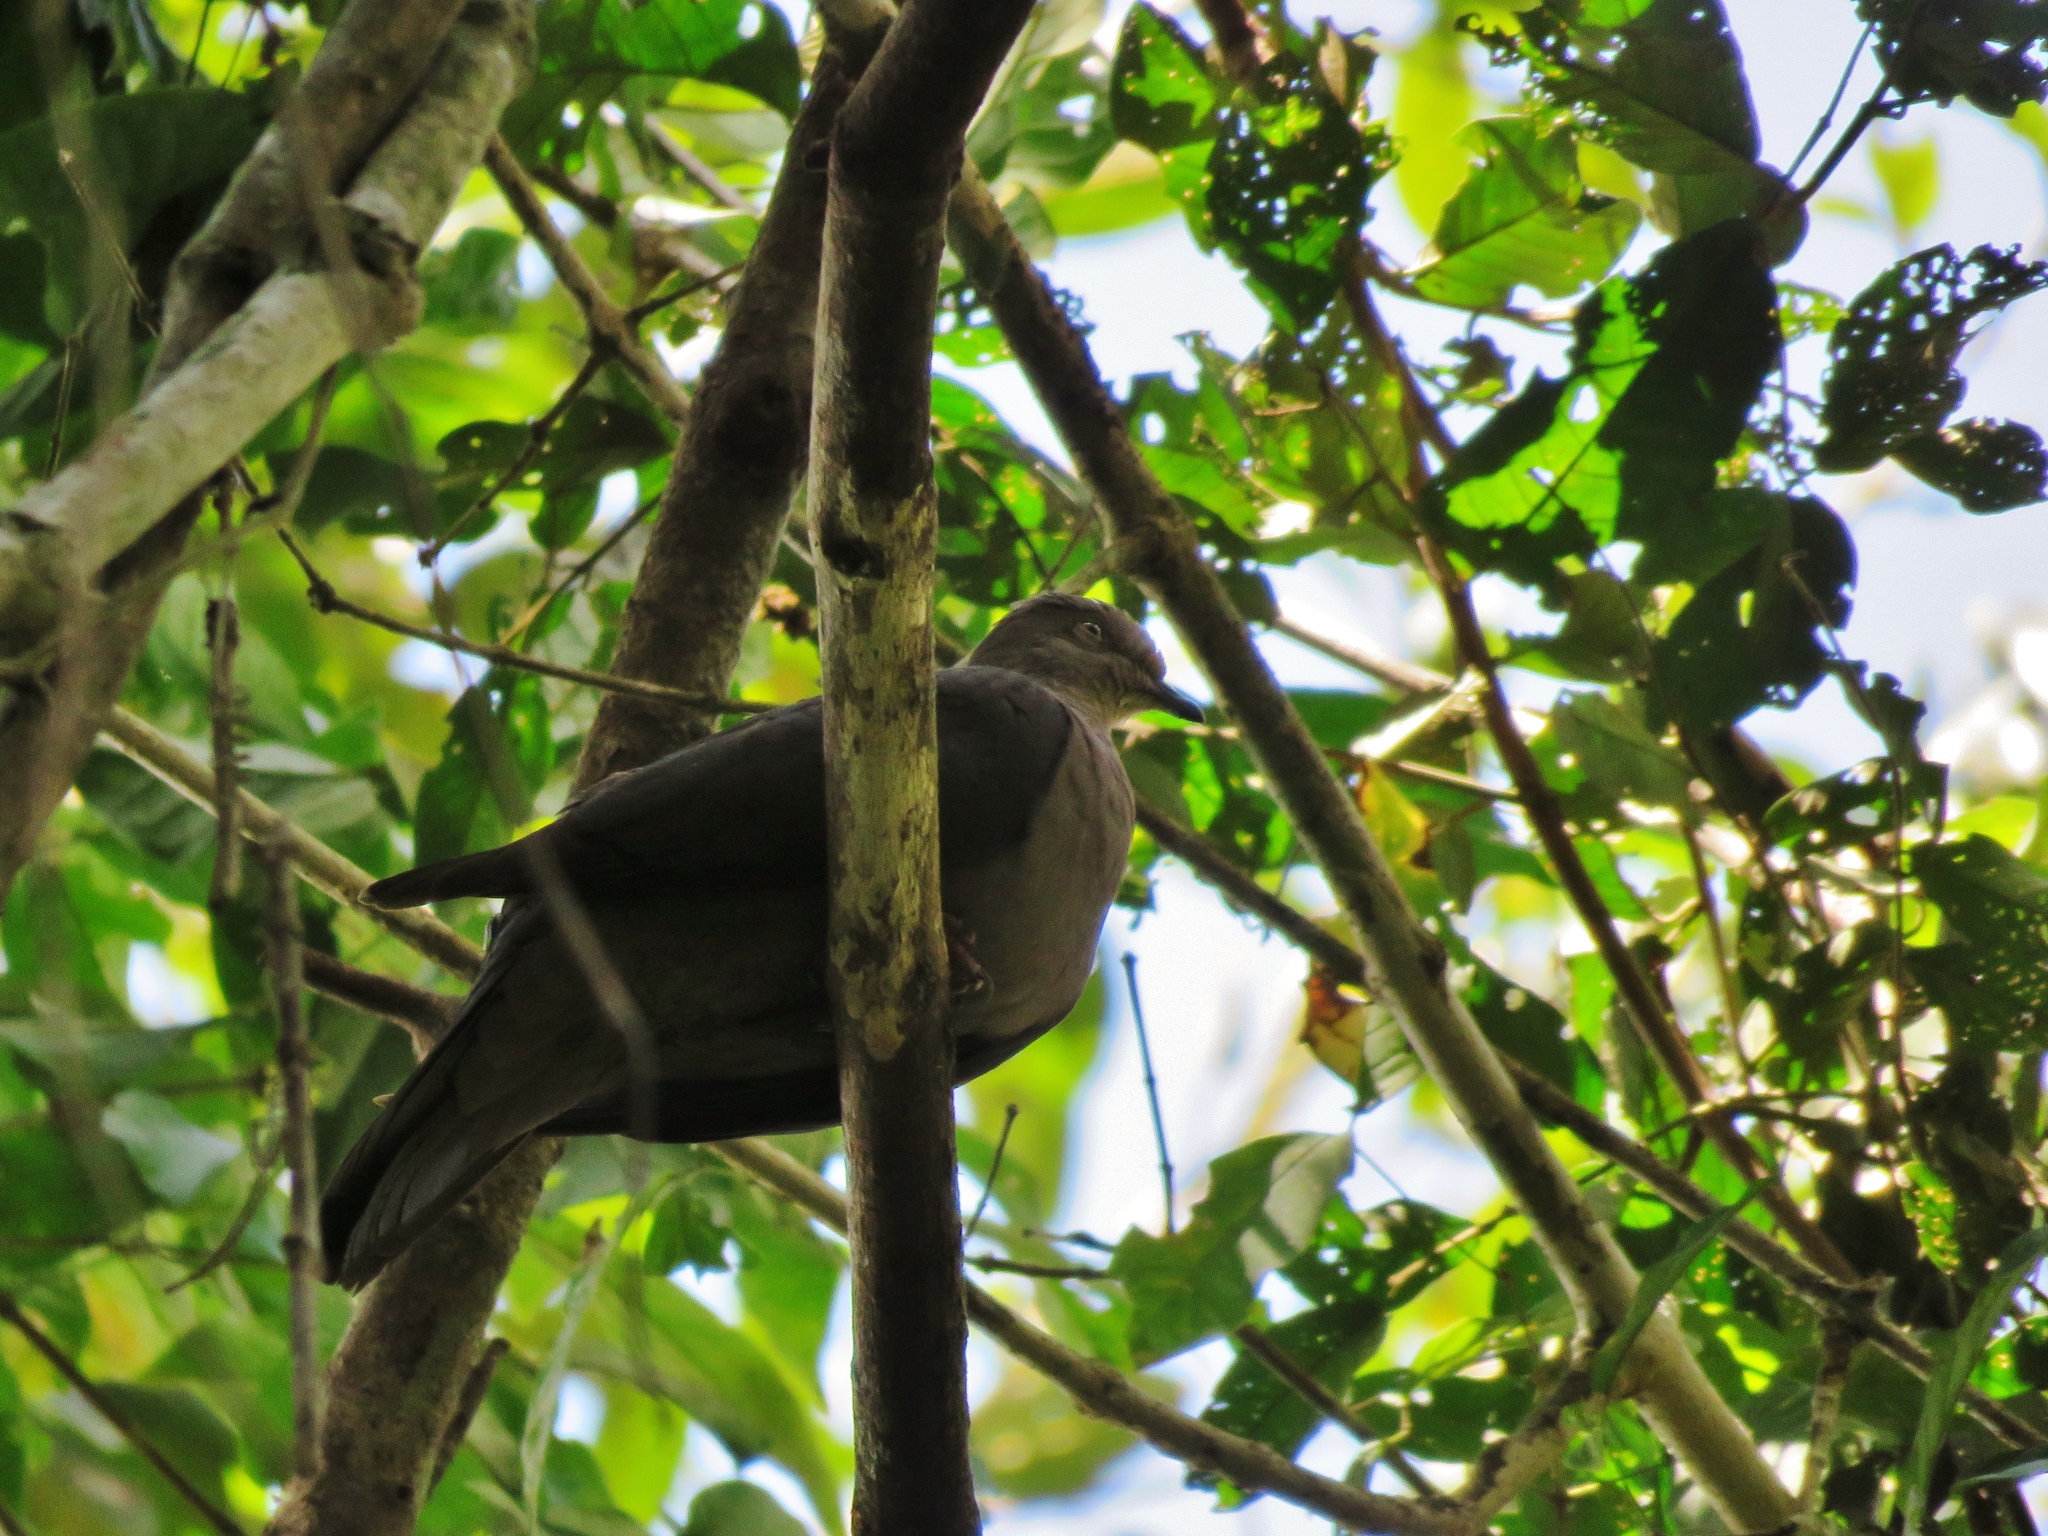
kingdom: Animalia
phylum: Chordata
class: Aves
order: Columbiformes
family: Columbidae
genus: Patagioenas
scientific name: Patagioenas plumbea
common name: Plumbeous pigeon
